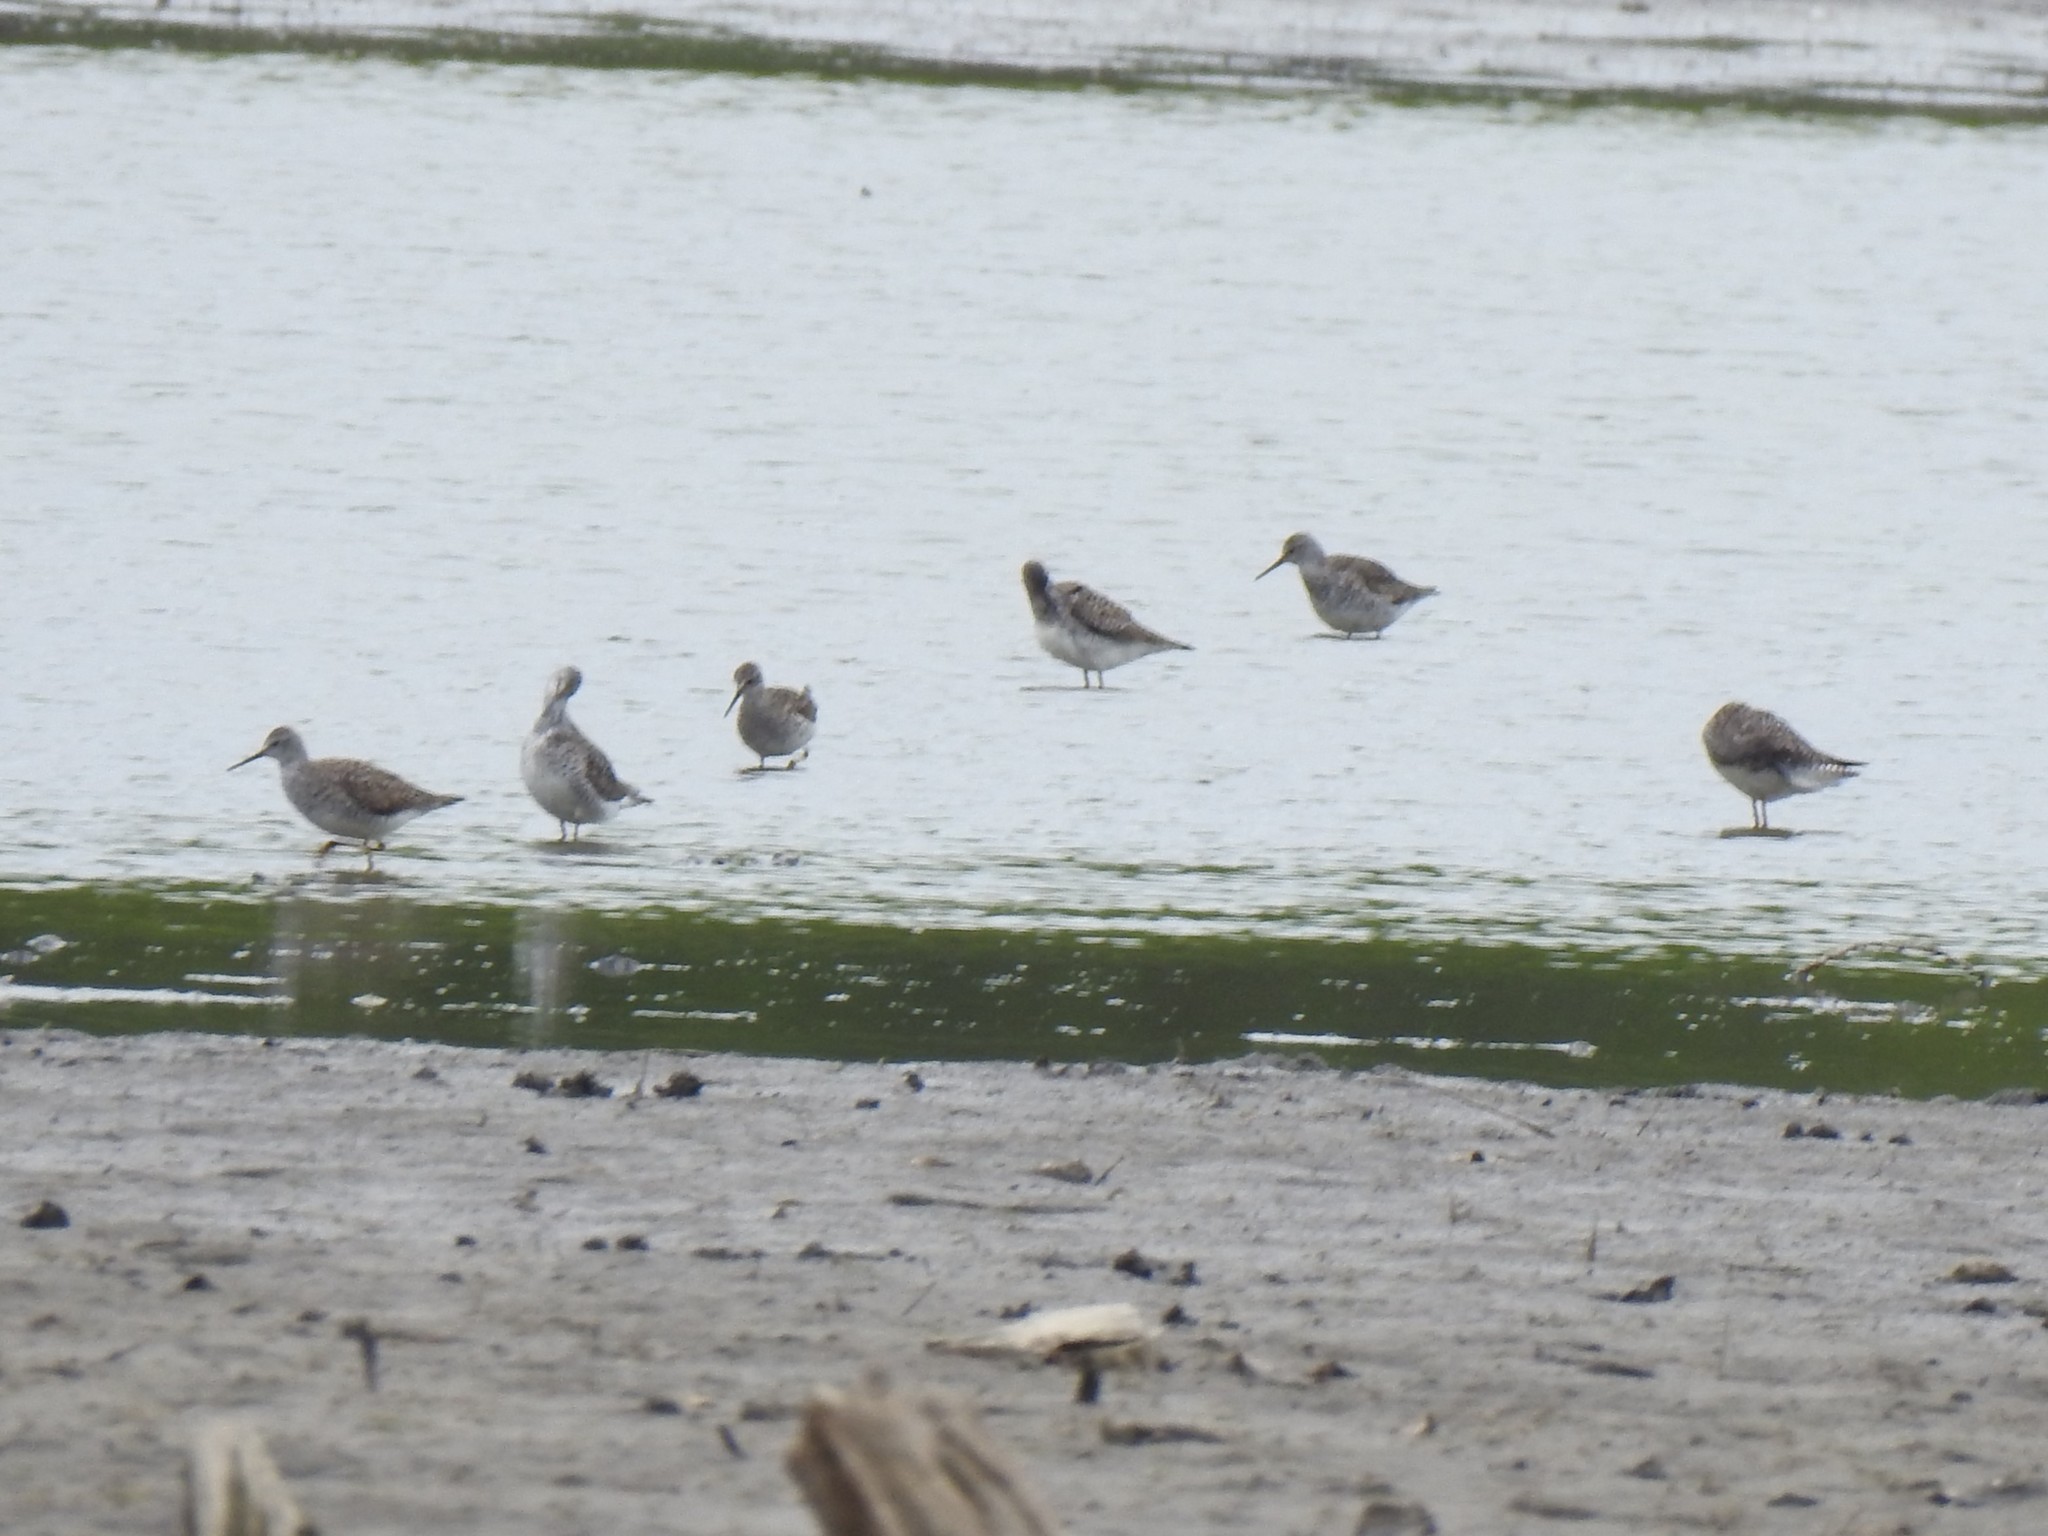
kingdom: Animalia
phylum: Chordata
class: Aves
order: Charadriiformes
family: Scolopacidae
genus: Tringa
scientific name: Tringa flavipes
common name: Lesser yellowlegs
